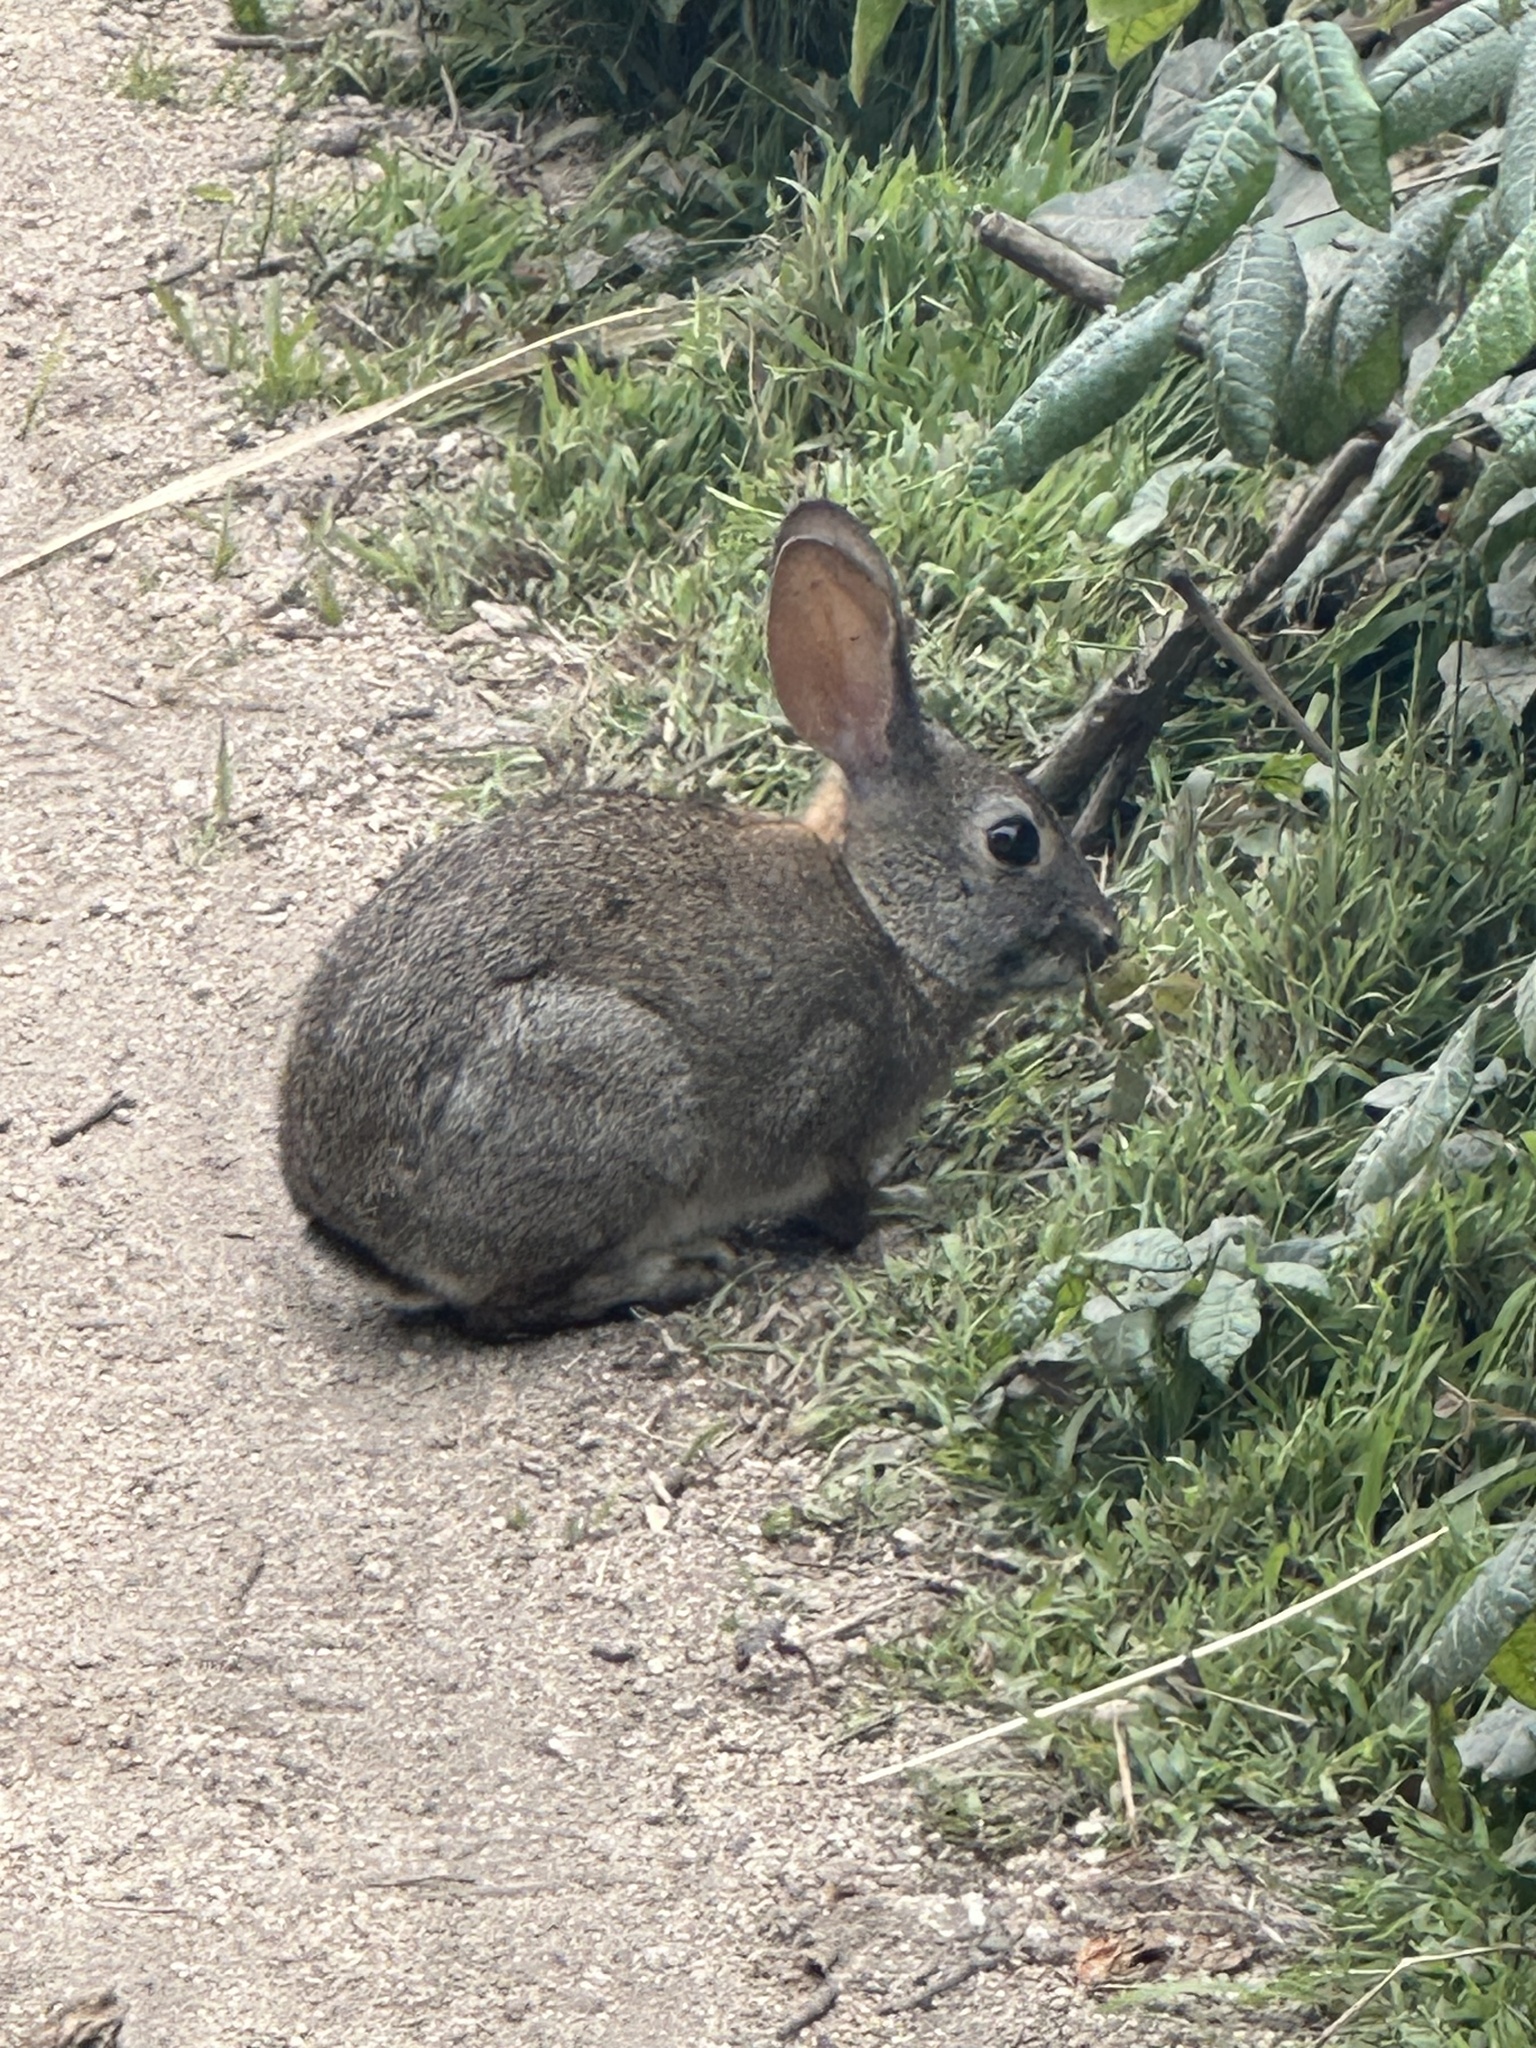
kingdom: Animalia
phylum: Chordata
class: Mammalia
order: Lagomorpha
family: Leporidae
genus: Sylvilagus
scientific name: Sylvilagus bachmani
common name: Brush rabbit
